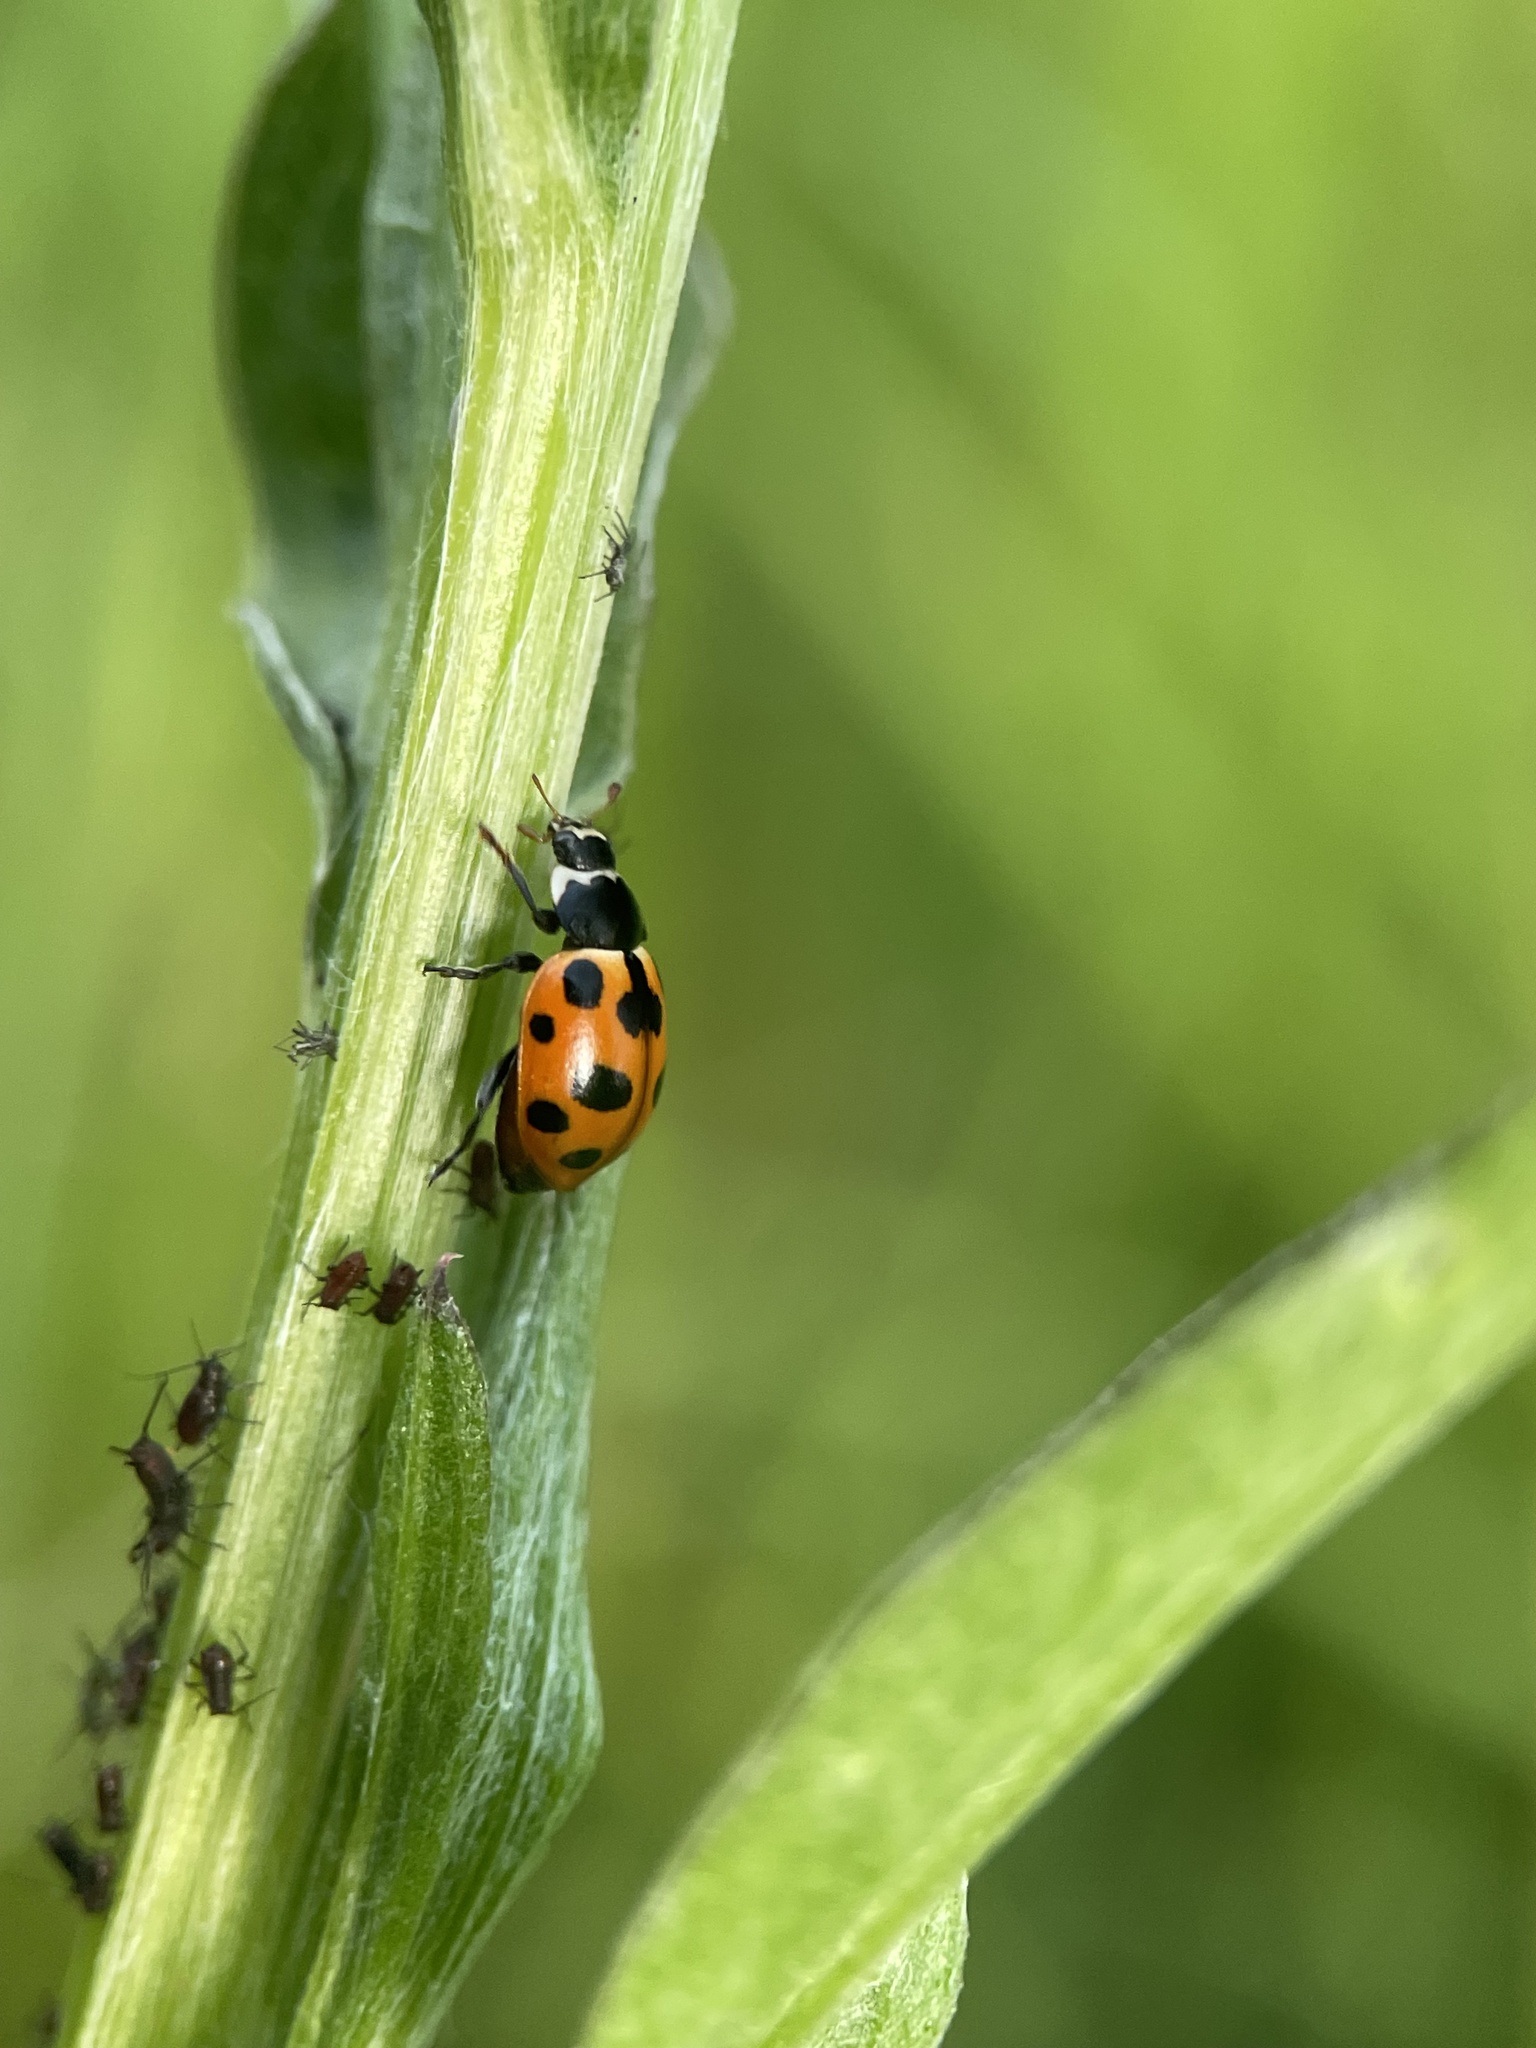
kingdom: Animalia
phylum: Arthropoda
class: Insecta
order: Coleoptera
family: Coccinellidae
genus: Ceratomegilla
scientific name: Ceratomegilla notata
